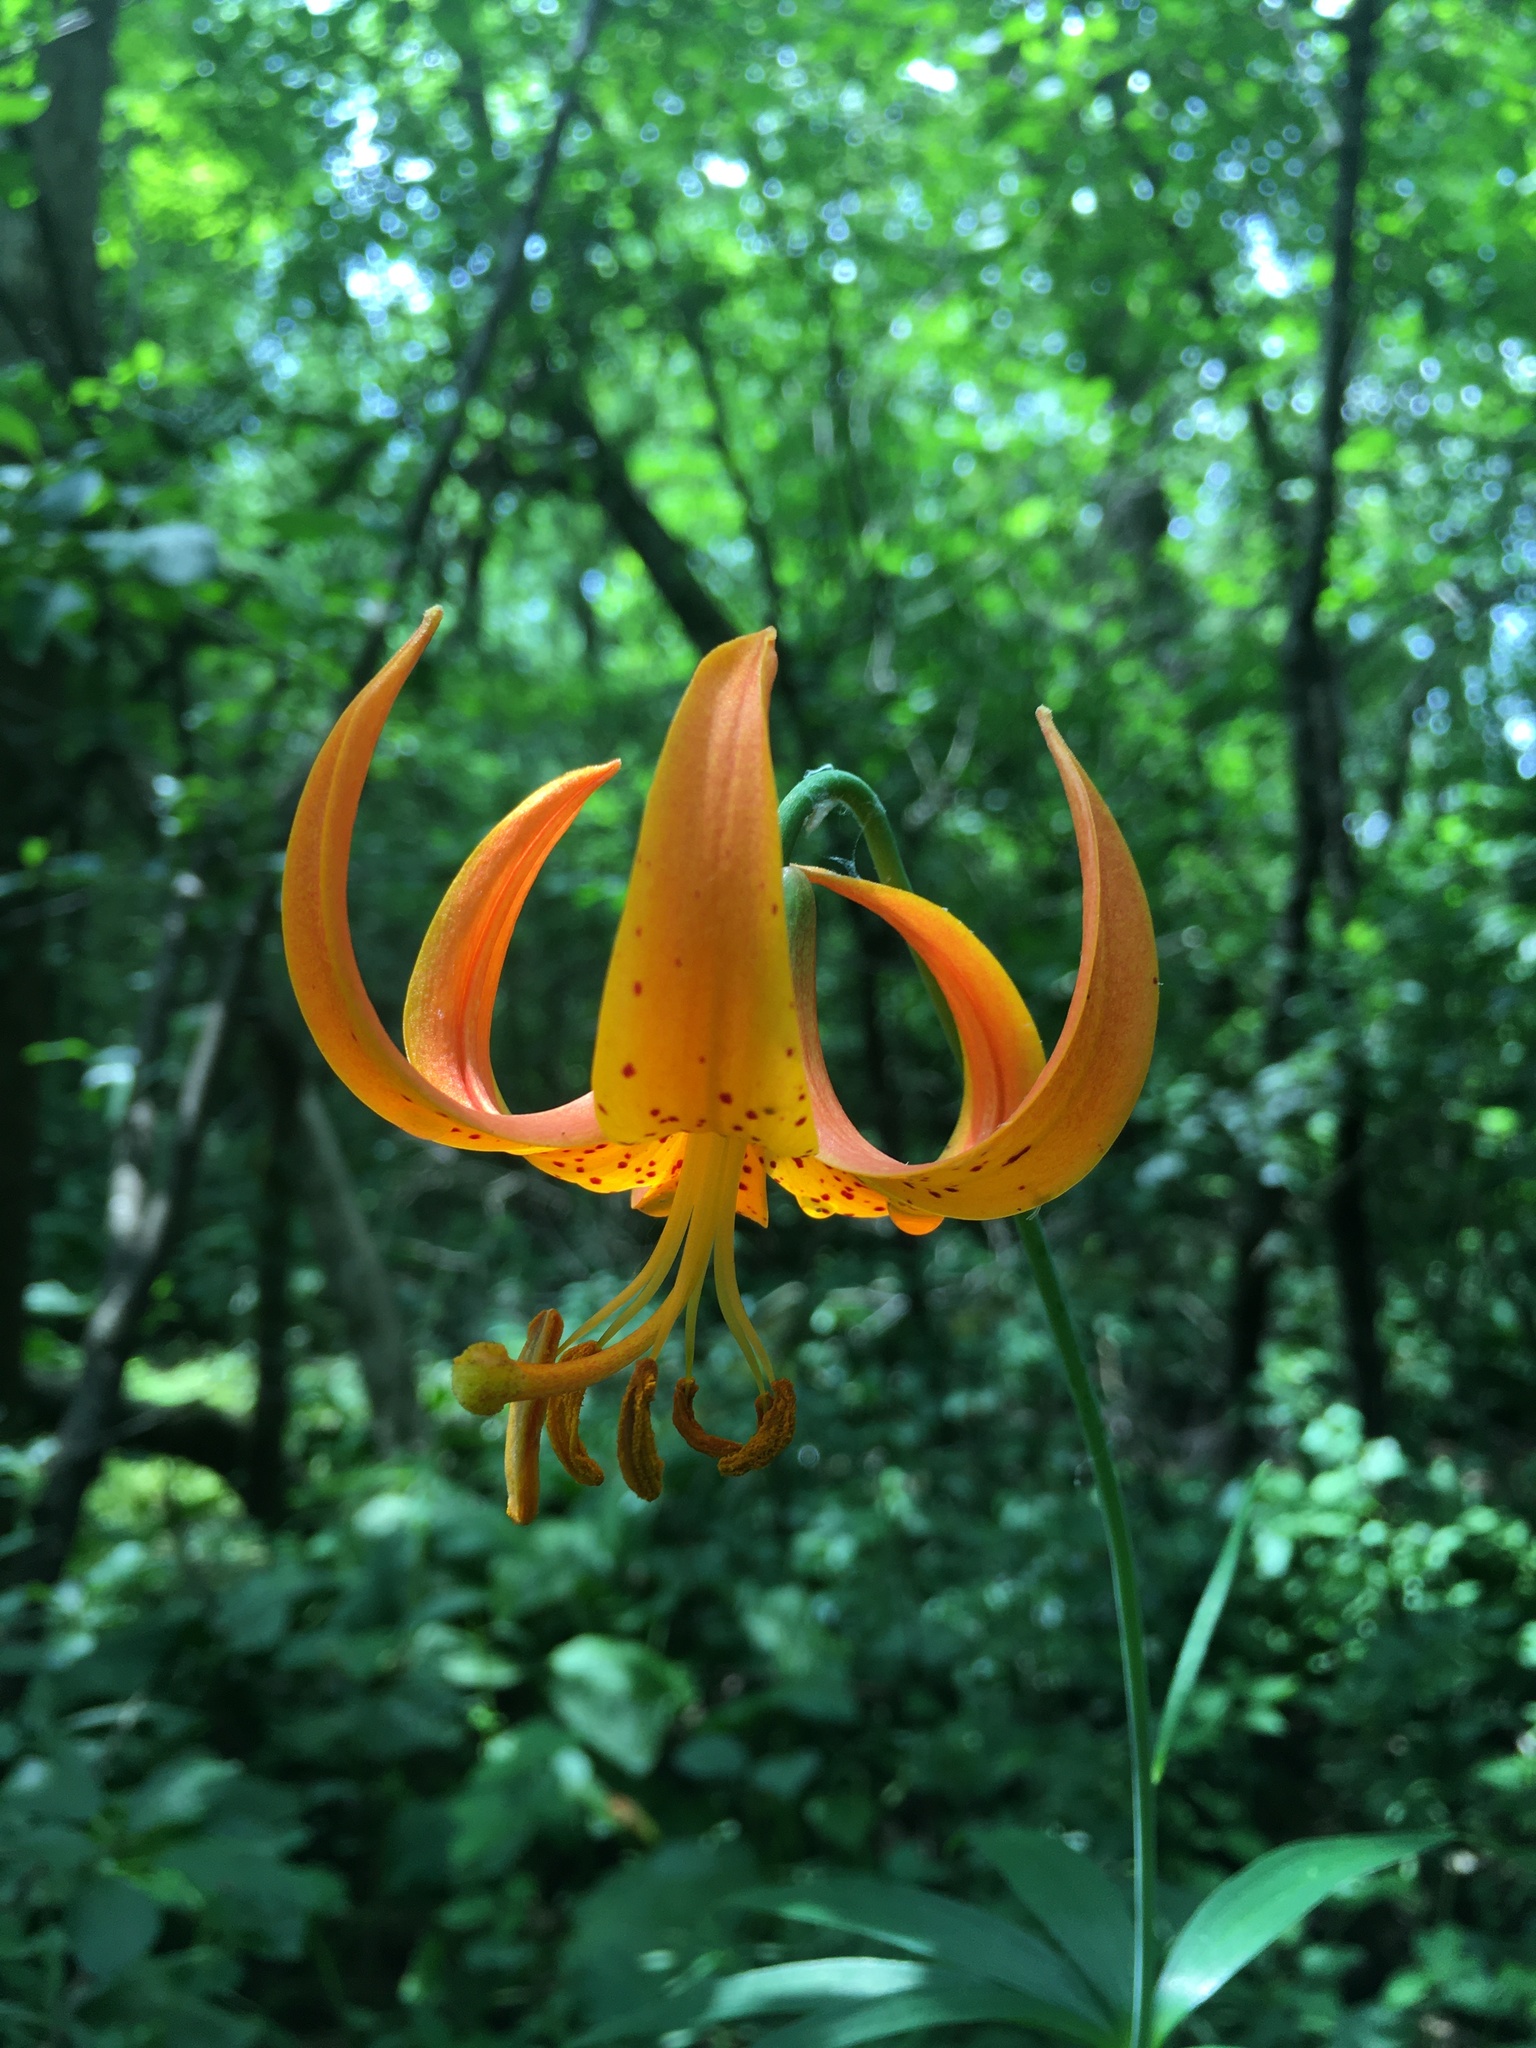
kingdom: Plantae
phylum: Tracheophyta
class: Liliopsida
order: Liliales
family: Liliaceae
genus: Lilium
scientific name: Lilium michiganense
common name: Michigan lily
